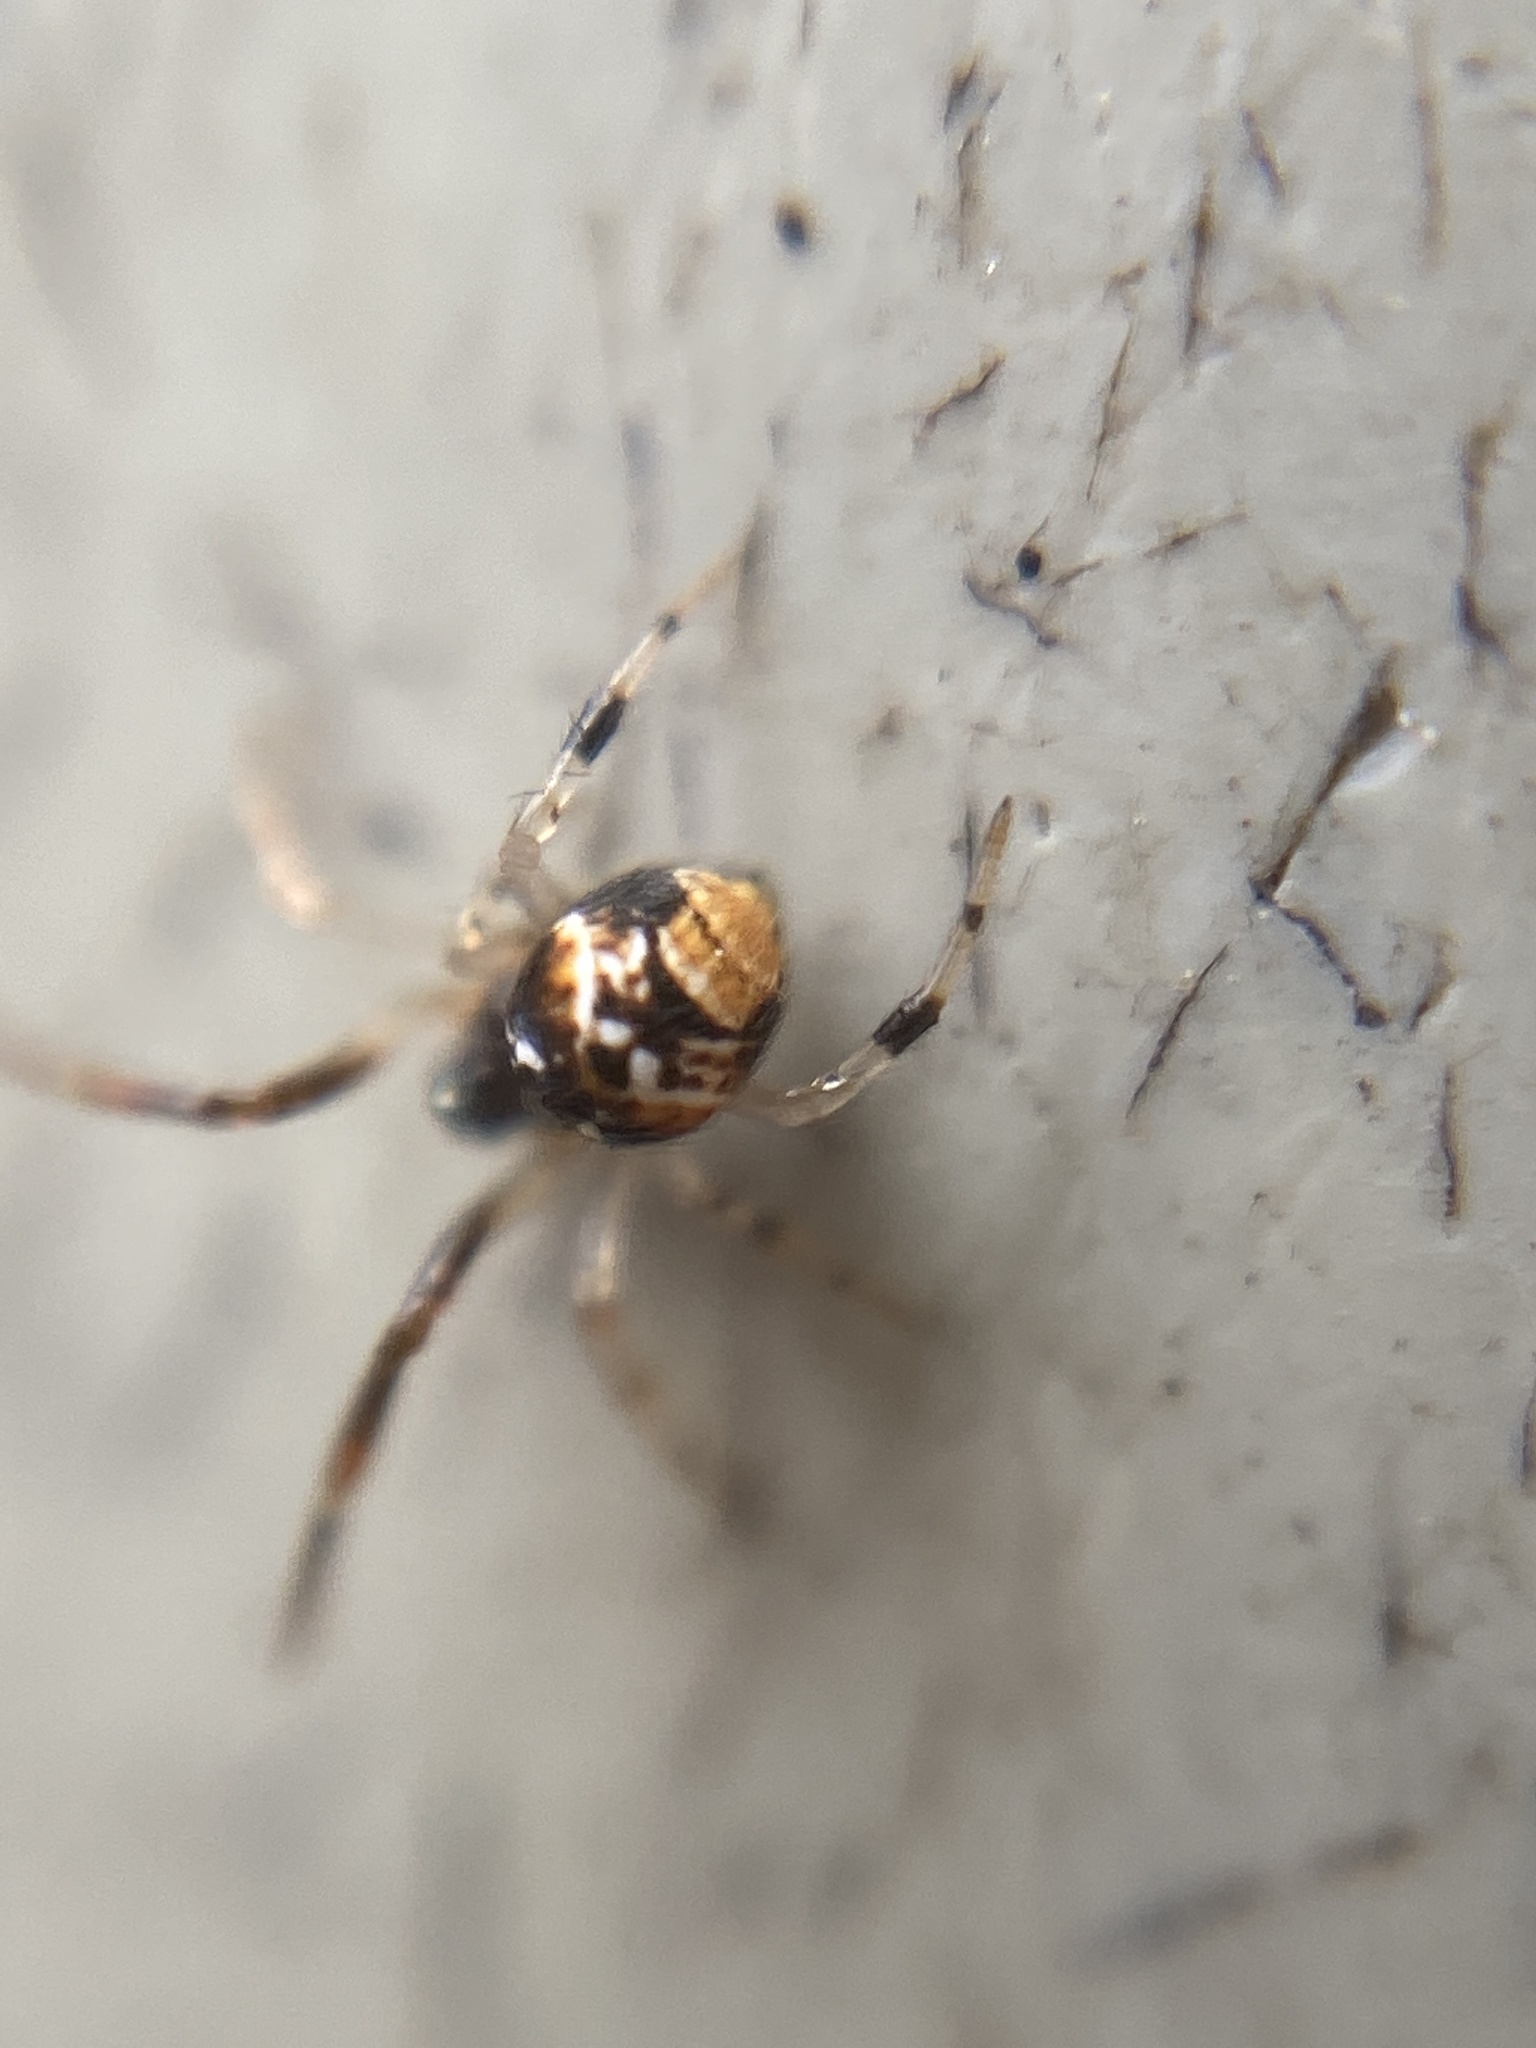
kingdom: Animalia
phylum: Arthropoda
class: Arachnida
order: Araneae
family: Theridiidae
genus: Parasteatoda
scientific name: Parasteatoda lunata
